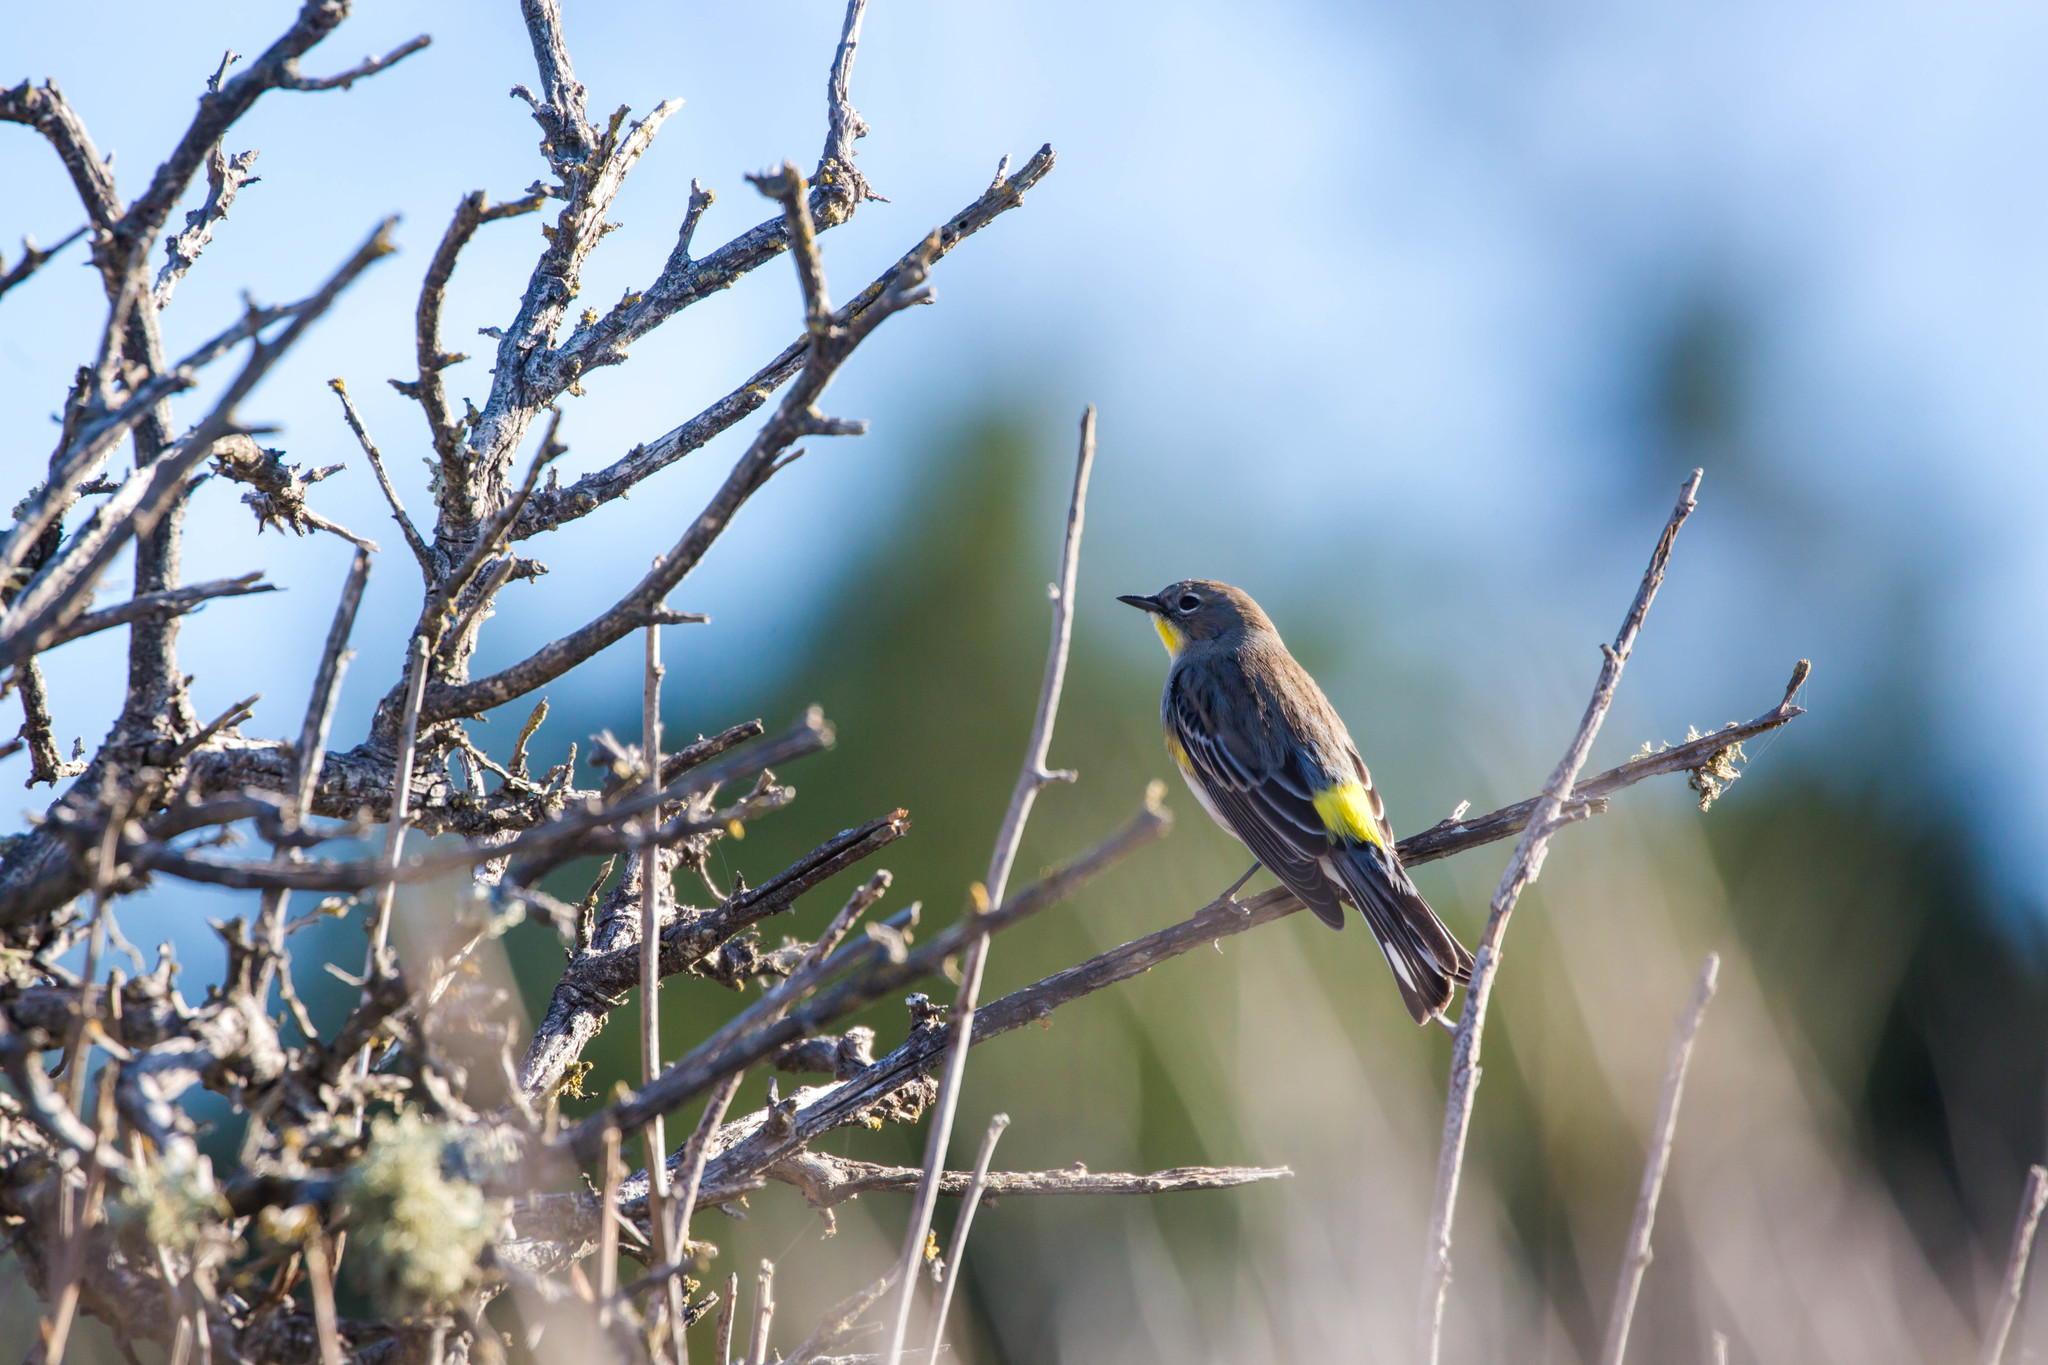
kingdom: Animalia
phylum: Chordata
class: Aves
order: Passeriformes
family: Parulidae
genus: Setophaga
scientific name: Setophaga coronata
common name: Myrtle warbler
